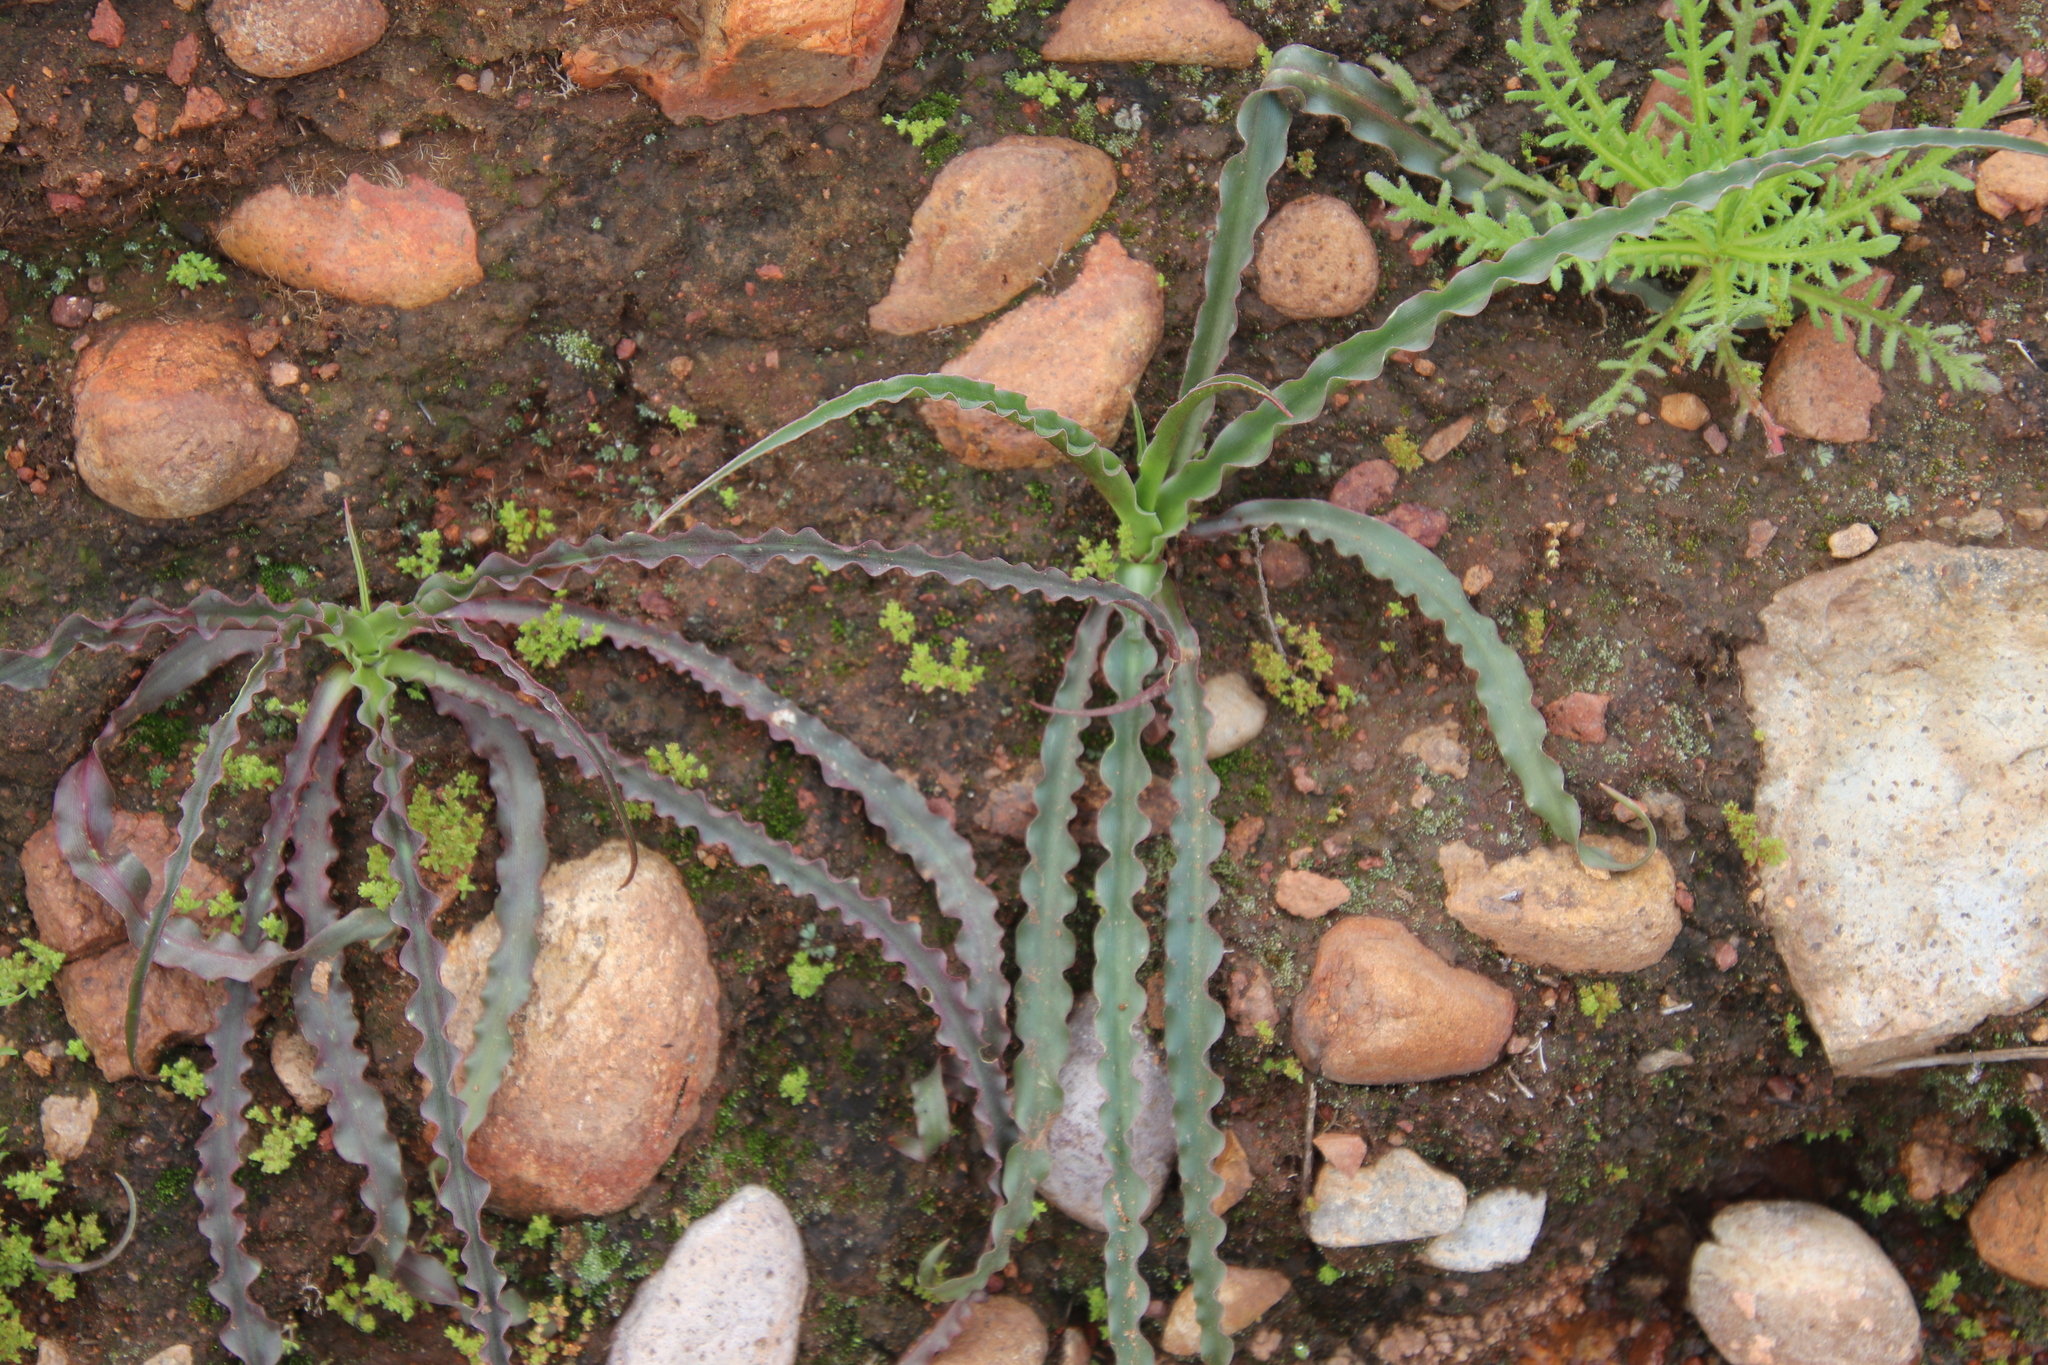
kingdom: Plantae
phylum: Tracheophyta
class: Liliopsida
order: Asparagales
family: Asparagaceae
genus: Hooveria
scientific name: Hooveria parviflora
